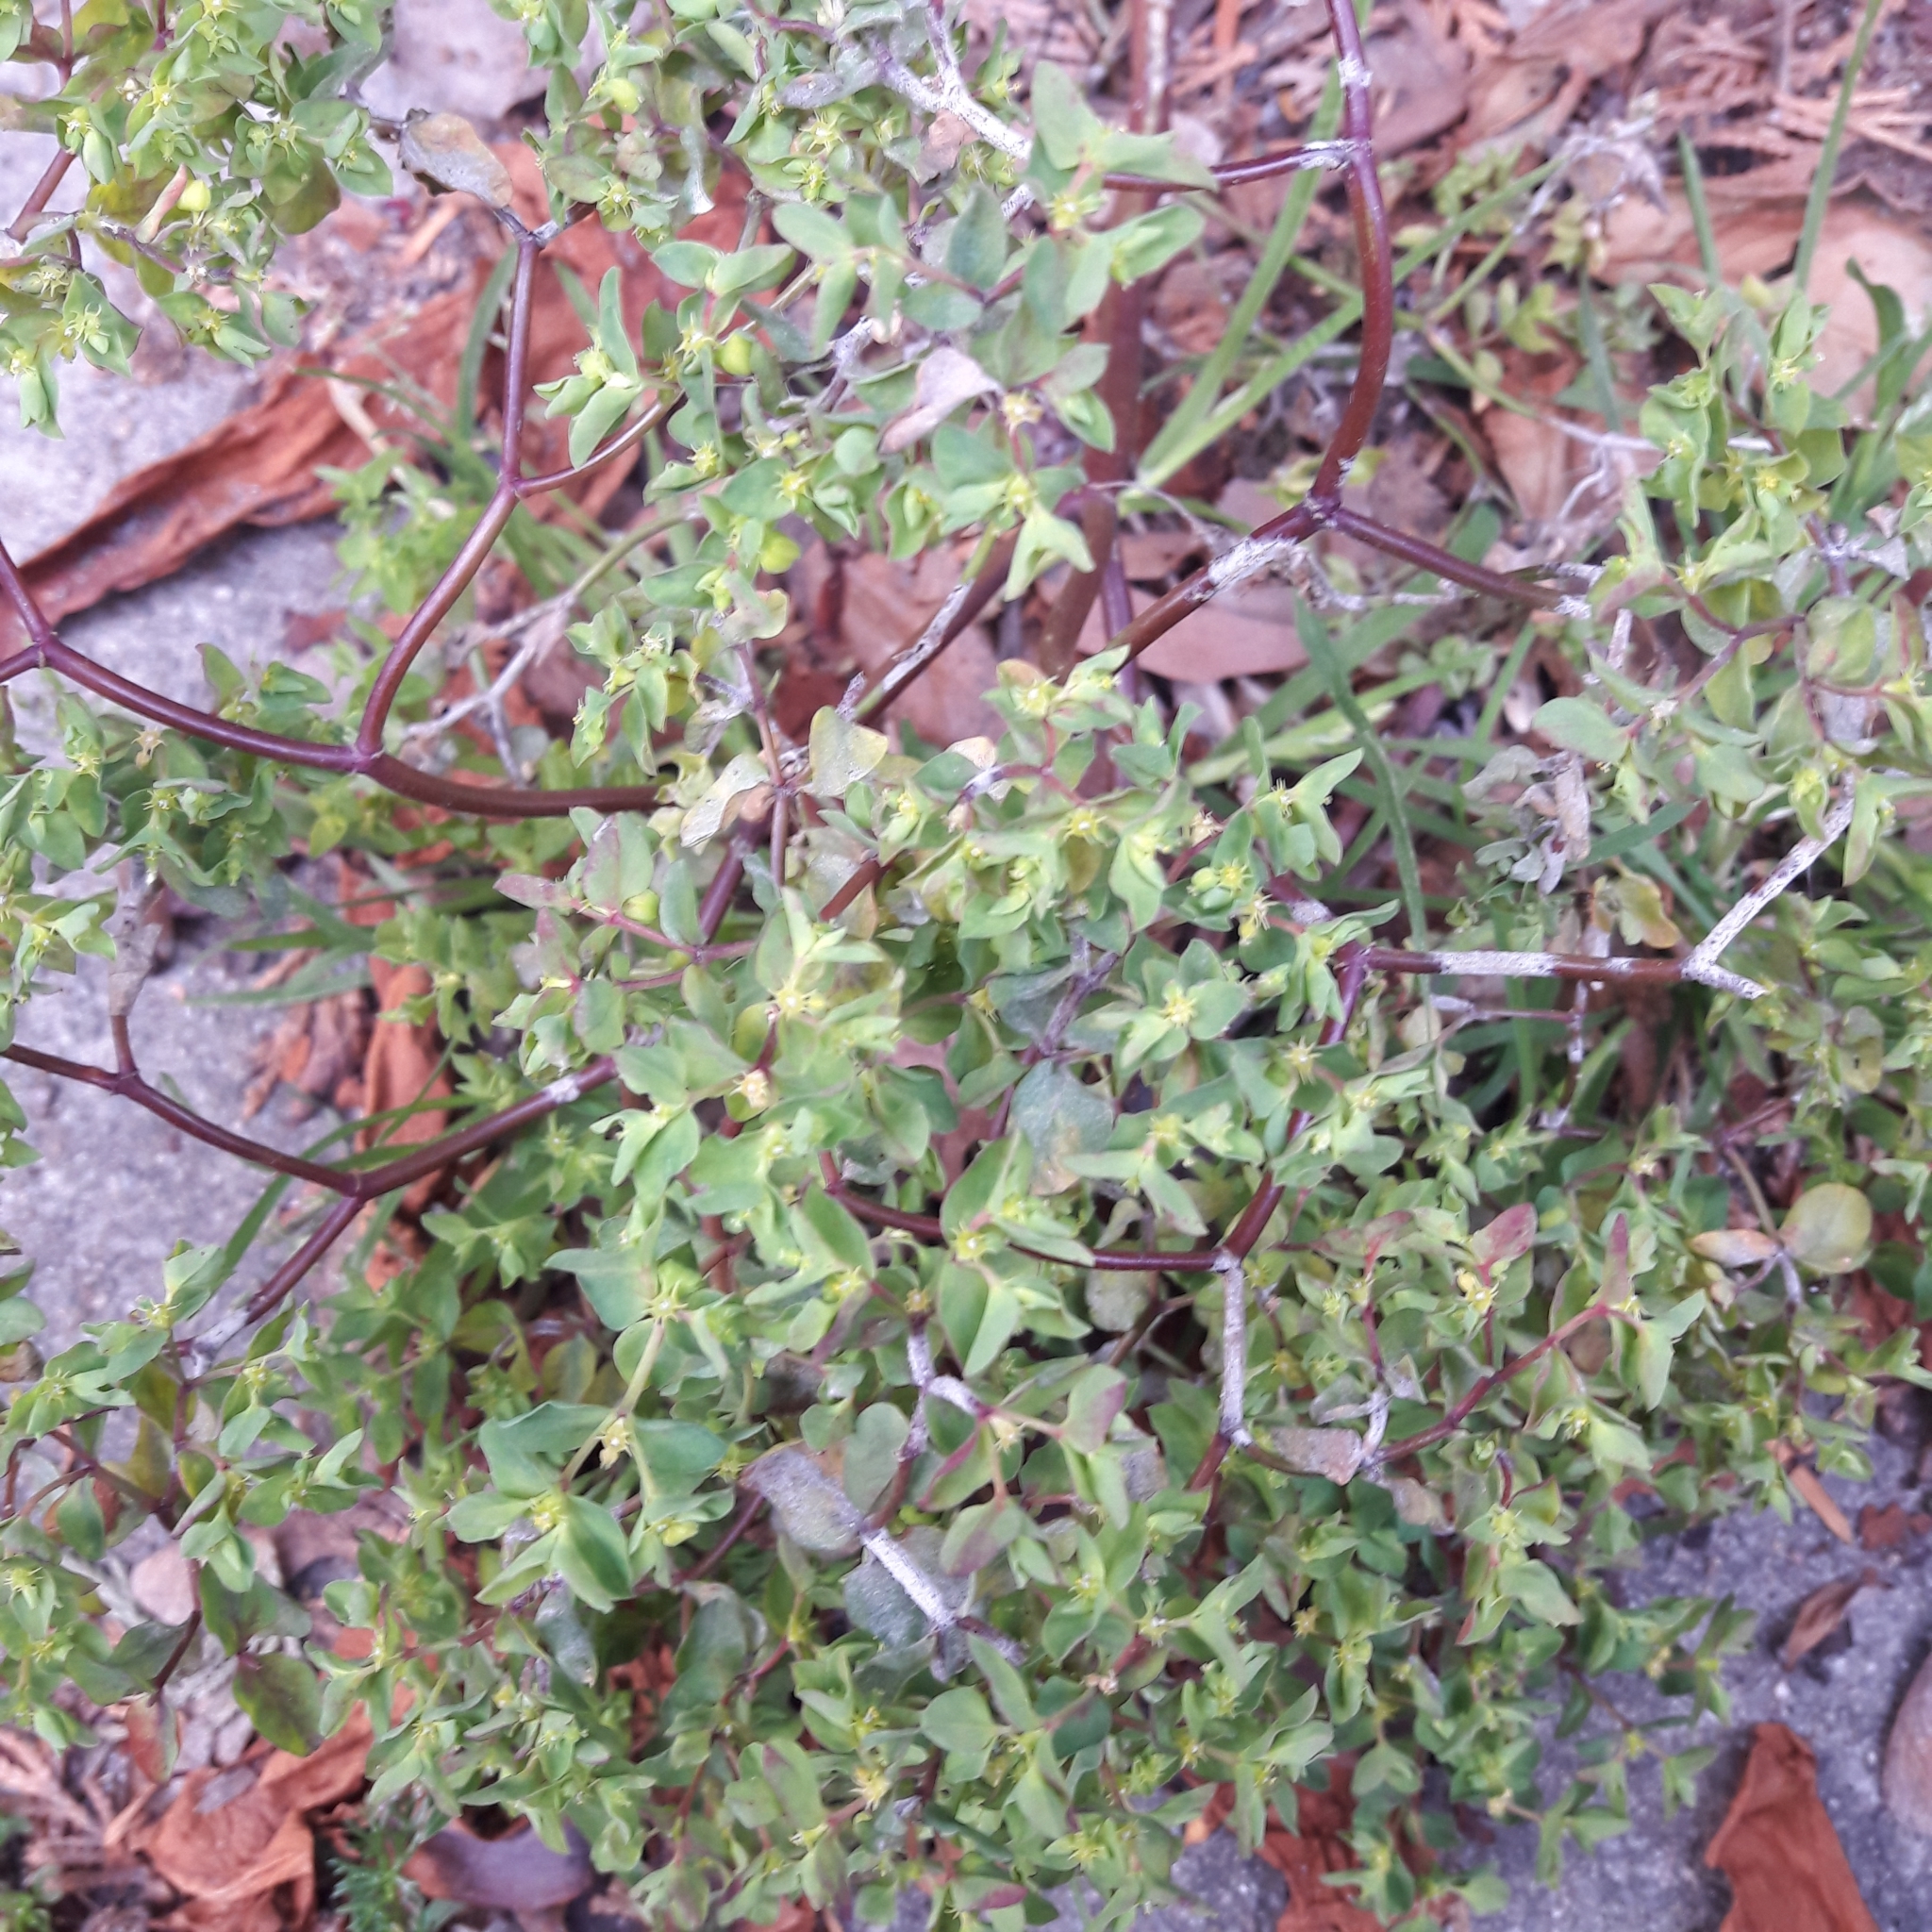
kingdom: Plantae
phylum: Tracheophyta
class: Magnoliopsida
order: Malpighiales
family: Euphorbiaceae
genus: Euphorbia
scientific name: Euphorbia peplus
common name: Petty spurge
